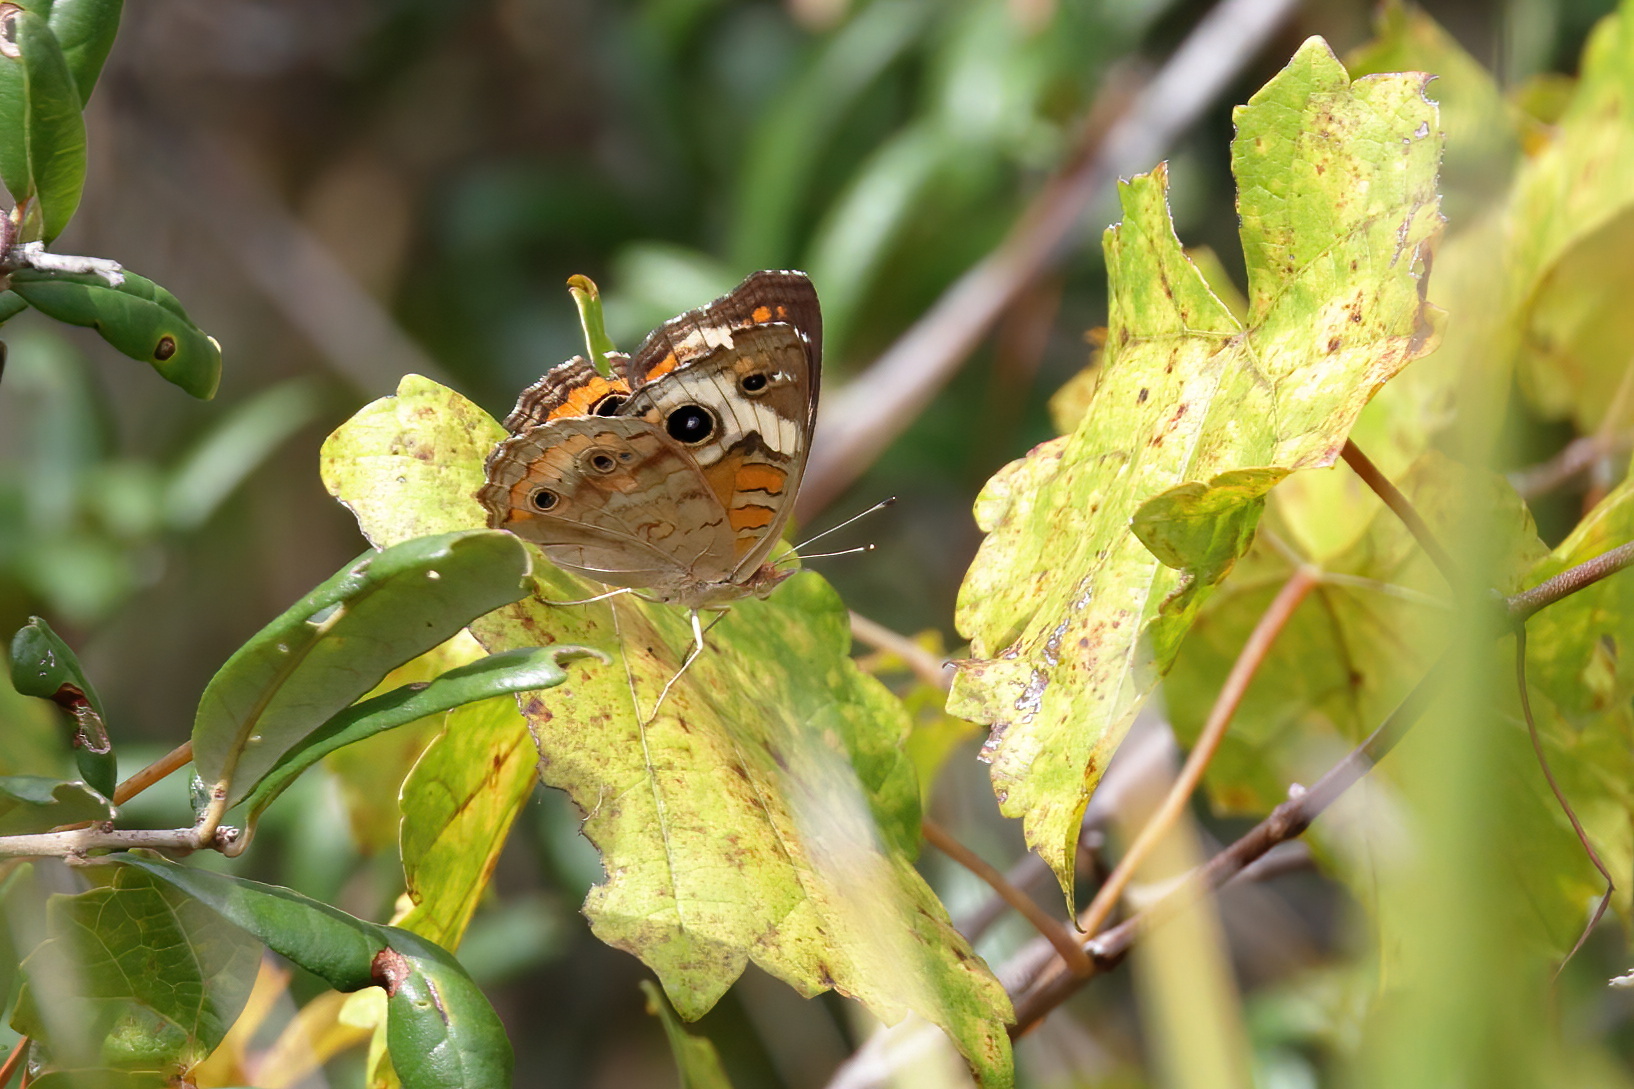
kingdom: Animalia
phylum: Arthropoda
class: Insecta
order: Lepidoptera
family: Nymphalidae
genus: Junonia
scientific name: Junonia coenia
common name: Common buckeye
